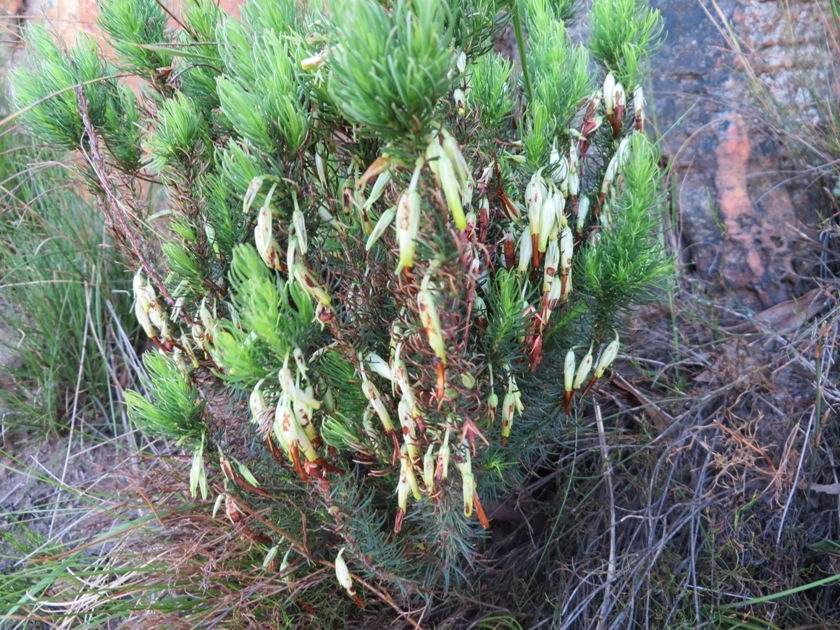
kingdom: Plantae
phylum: Tracheophyta
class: Magnoliopsida
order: Ericales
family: Ericaceae
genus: Erica
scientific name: Erica plukenetii
